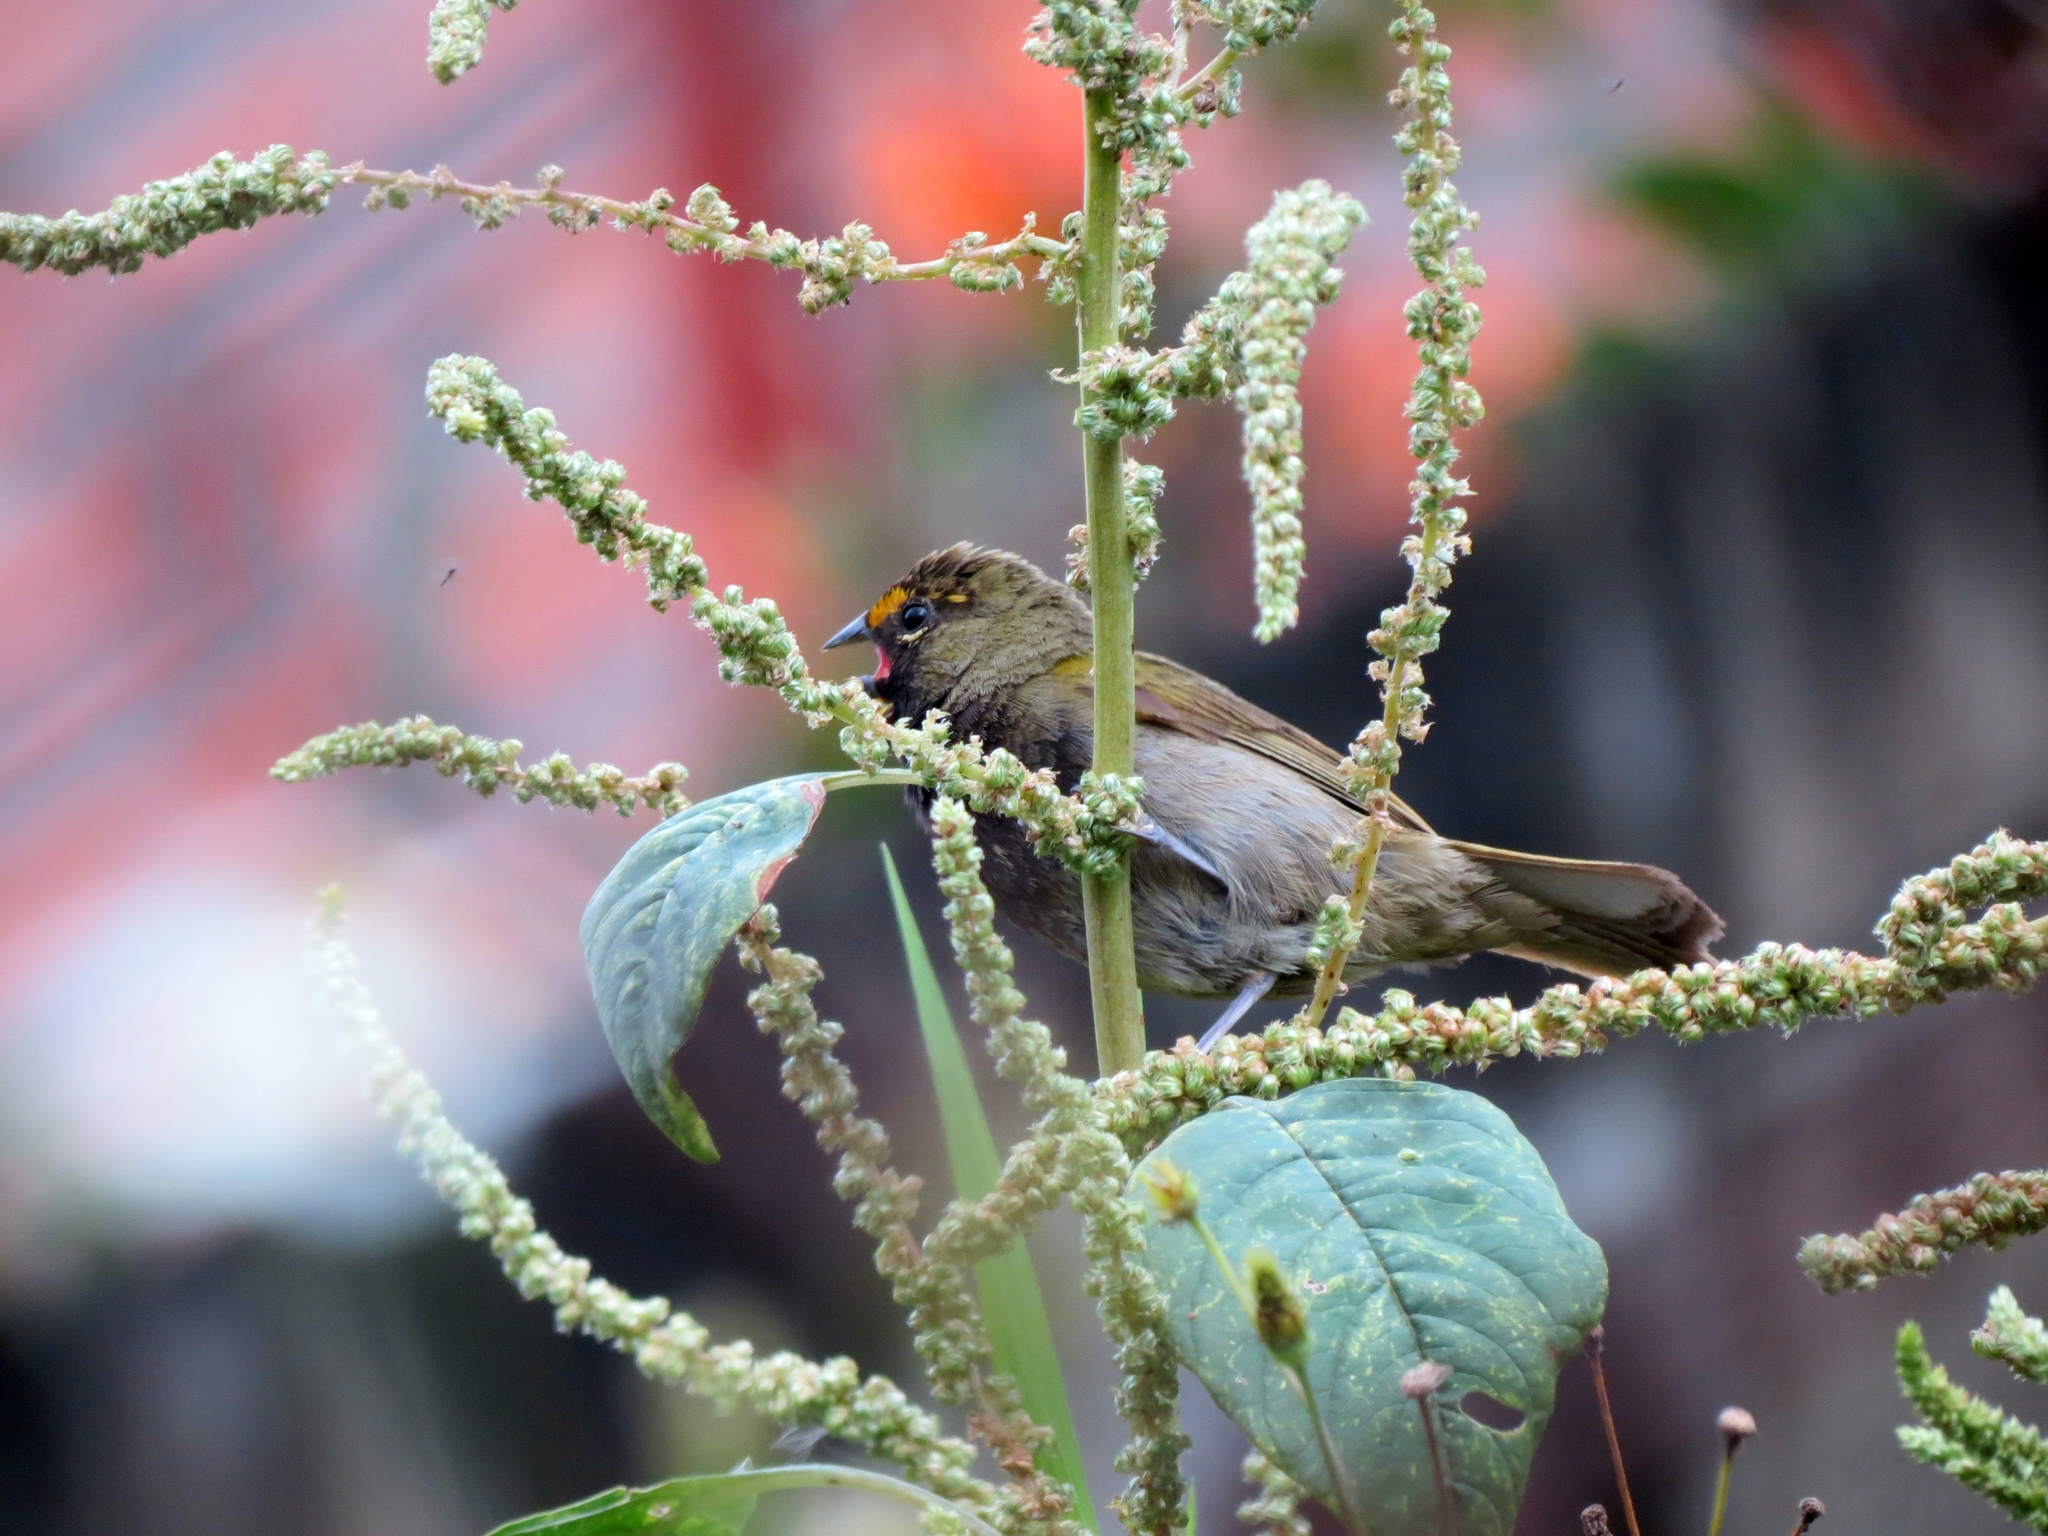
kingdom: Animalia
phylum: Chordata
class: Aves
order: Passeriformes
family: Thraupidae
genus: Tiaris
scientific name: Tiaris olivaceus
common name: Yellow-faced grassquit
